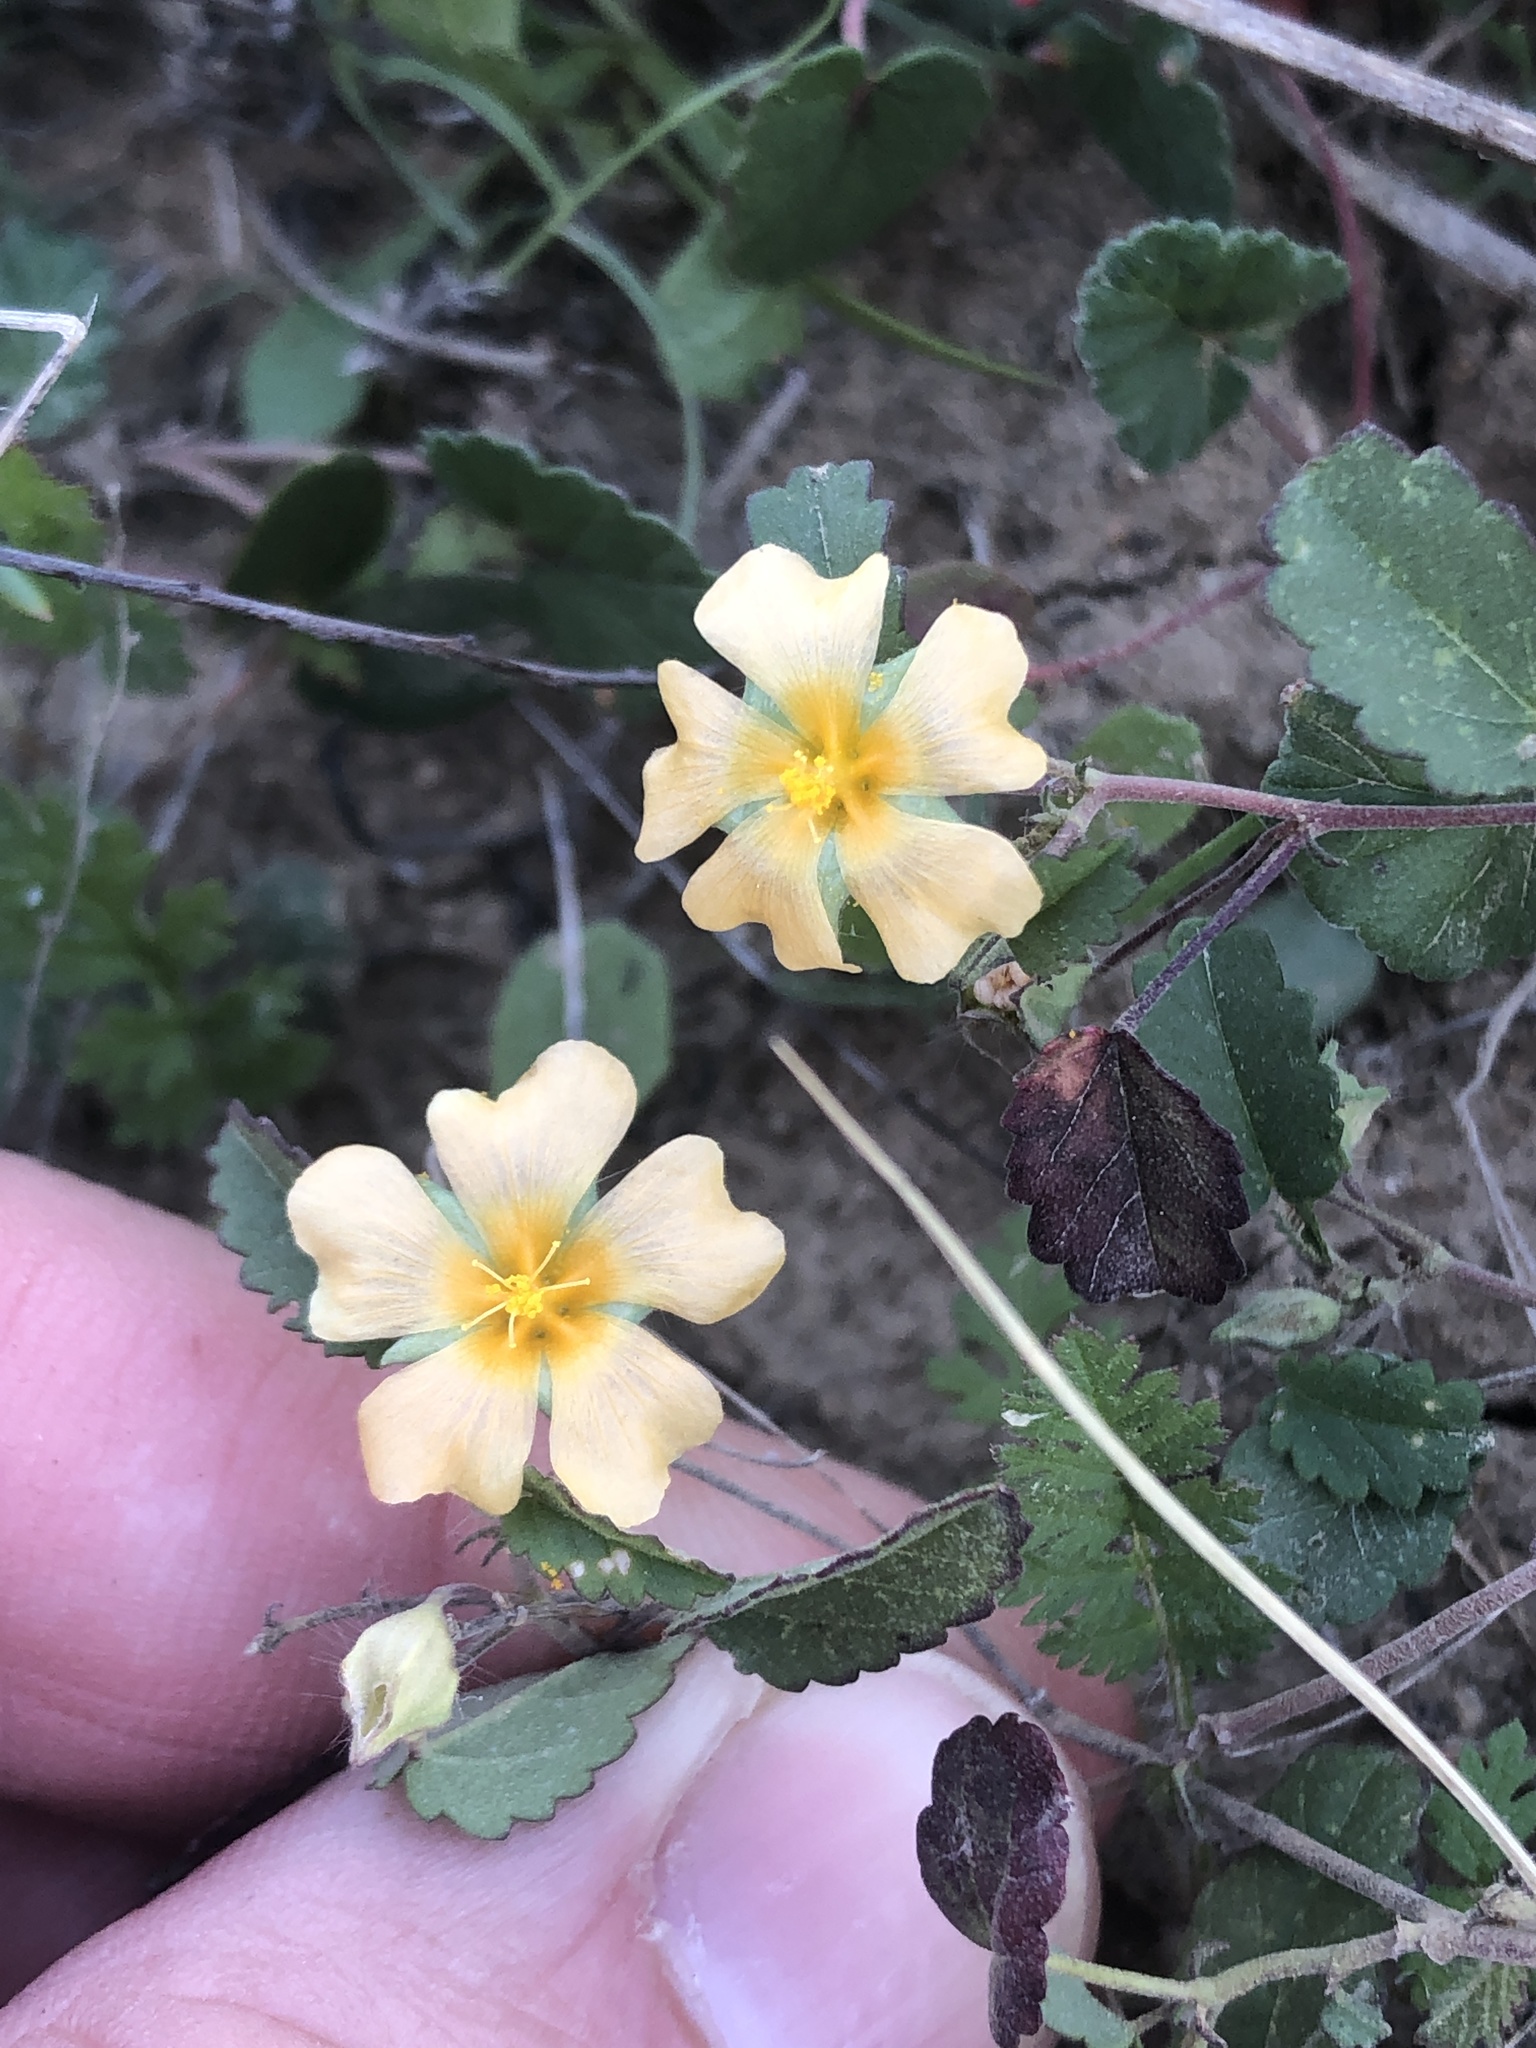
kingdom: Plantae
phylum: Tracheophyta
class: Magnoliopsida
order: Malvales
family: Malvaceae
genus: Sida
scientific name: Sida abutilifolia
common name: Spreading fanpetals
